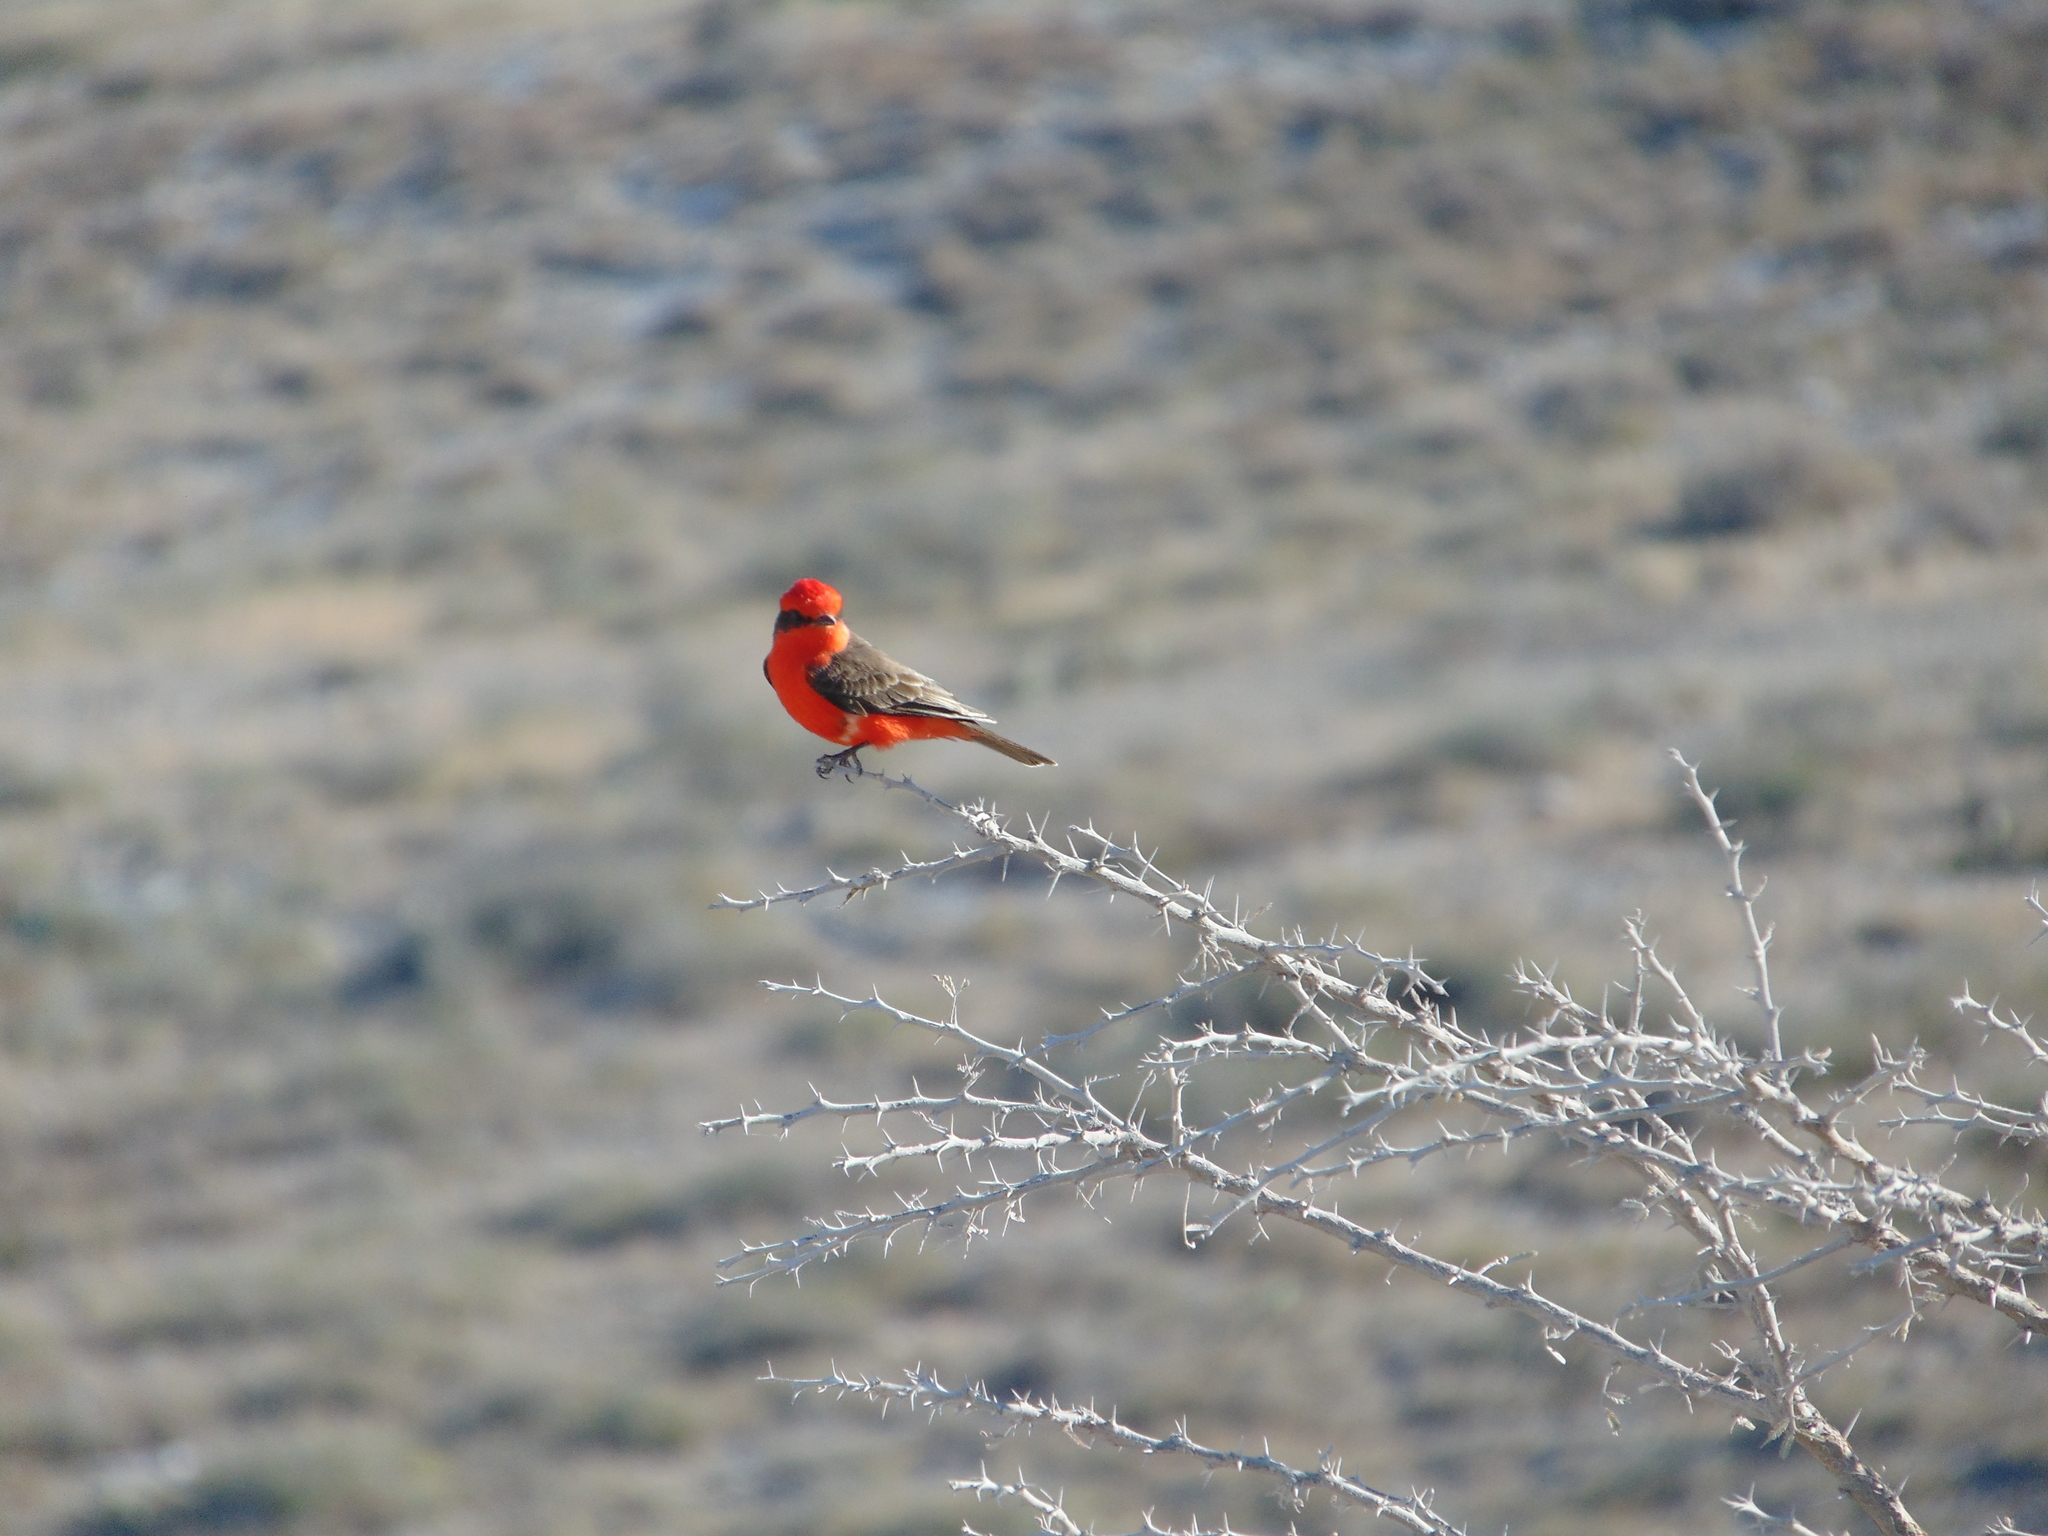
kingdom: Animalia
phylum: Chordata
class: Aves
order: Passeriformes
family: Tyrannidae
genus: Pyrocephalus
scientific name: Pyrocephalus rubinus
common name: Vermilion flycatcher
